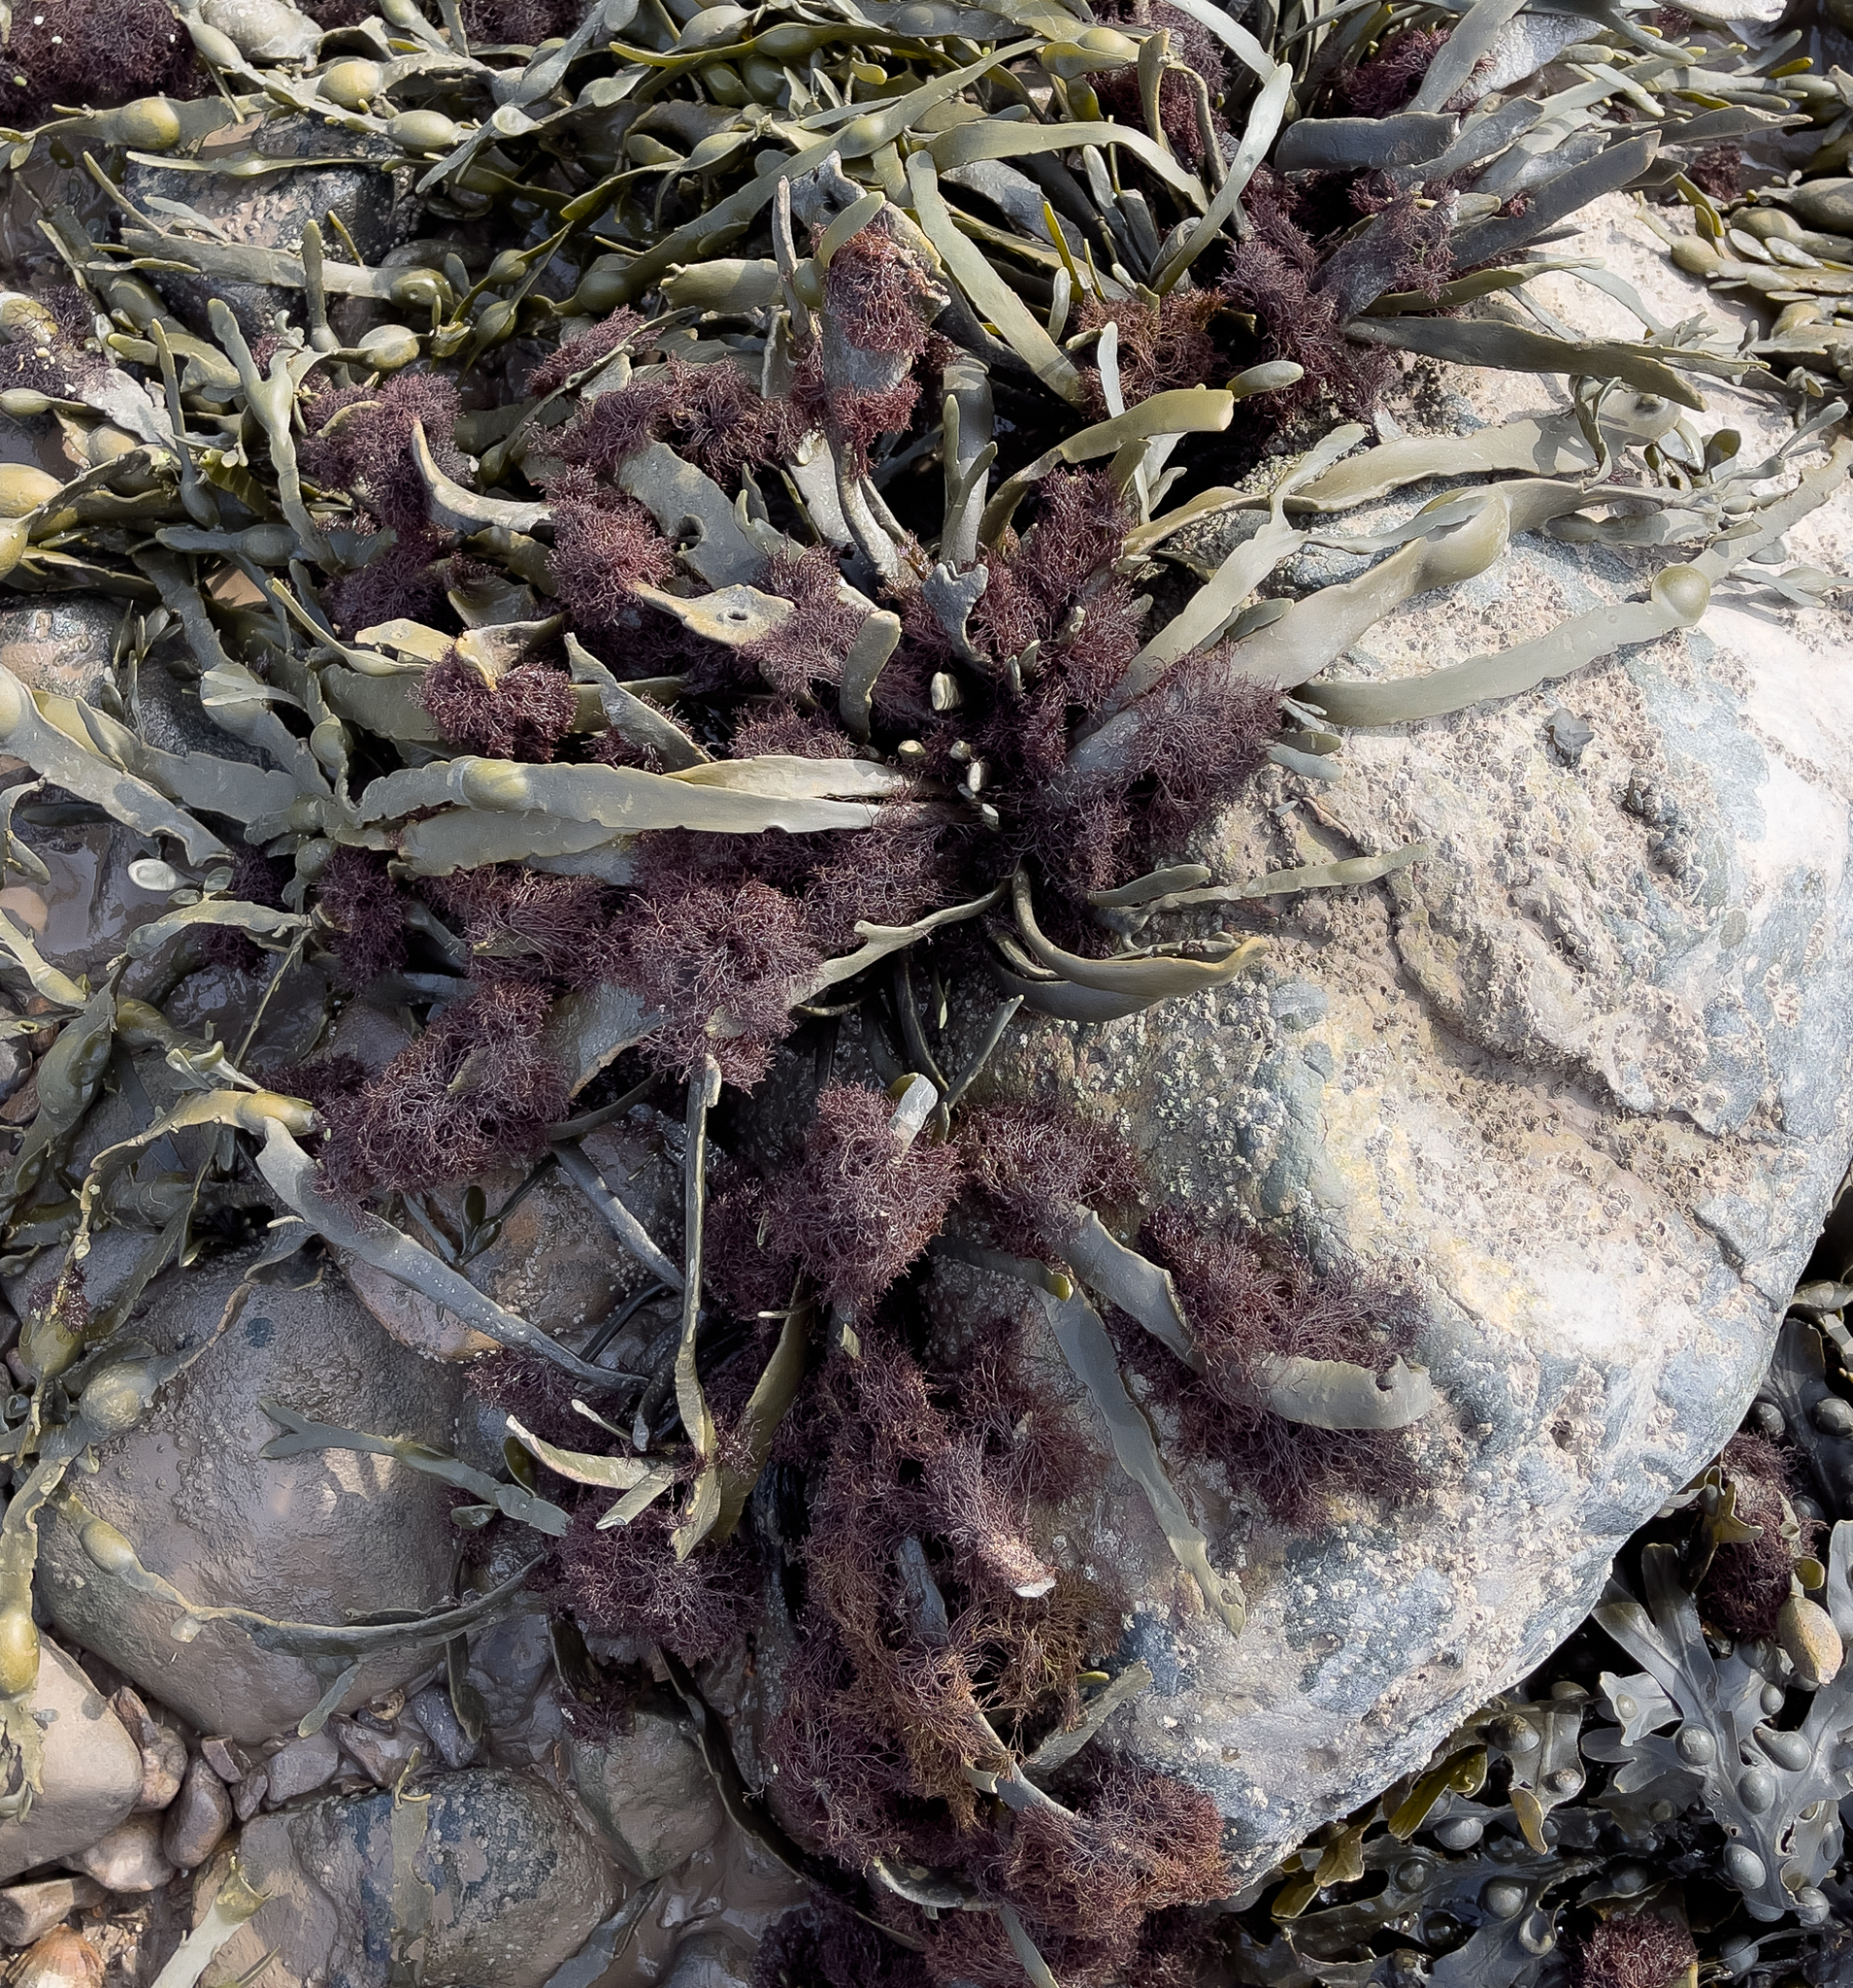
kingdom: Plantae
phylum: Rhodophyta
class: Florideophyceae
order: Ceramiales
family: Rhodomelaceae
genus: Vertebrata
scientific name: Vertebrata lanosa
